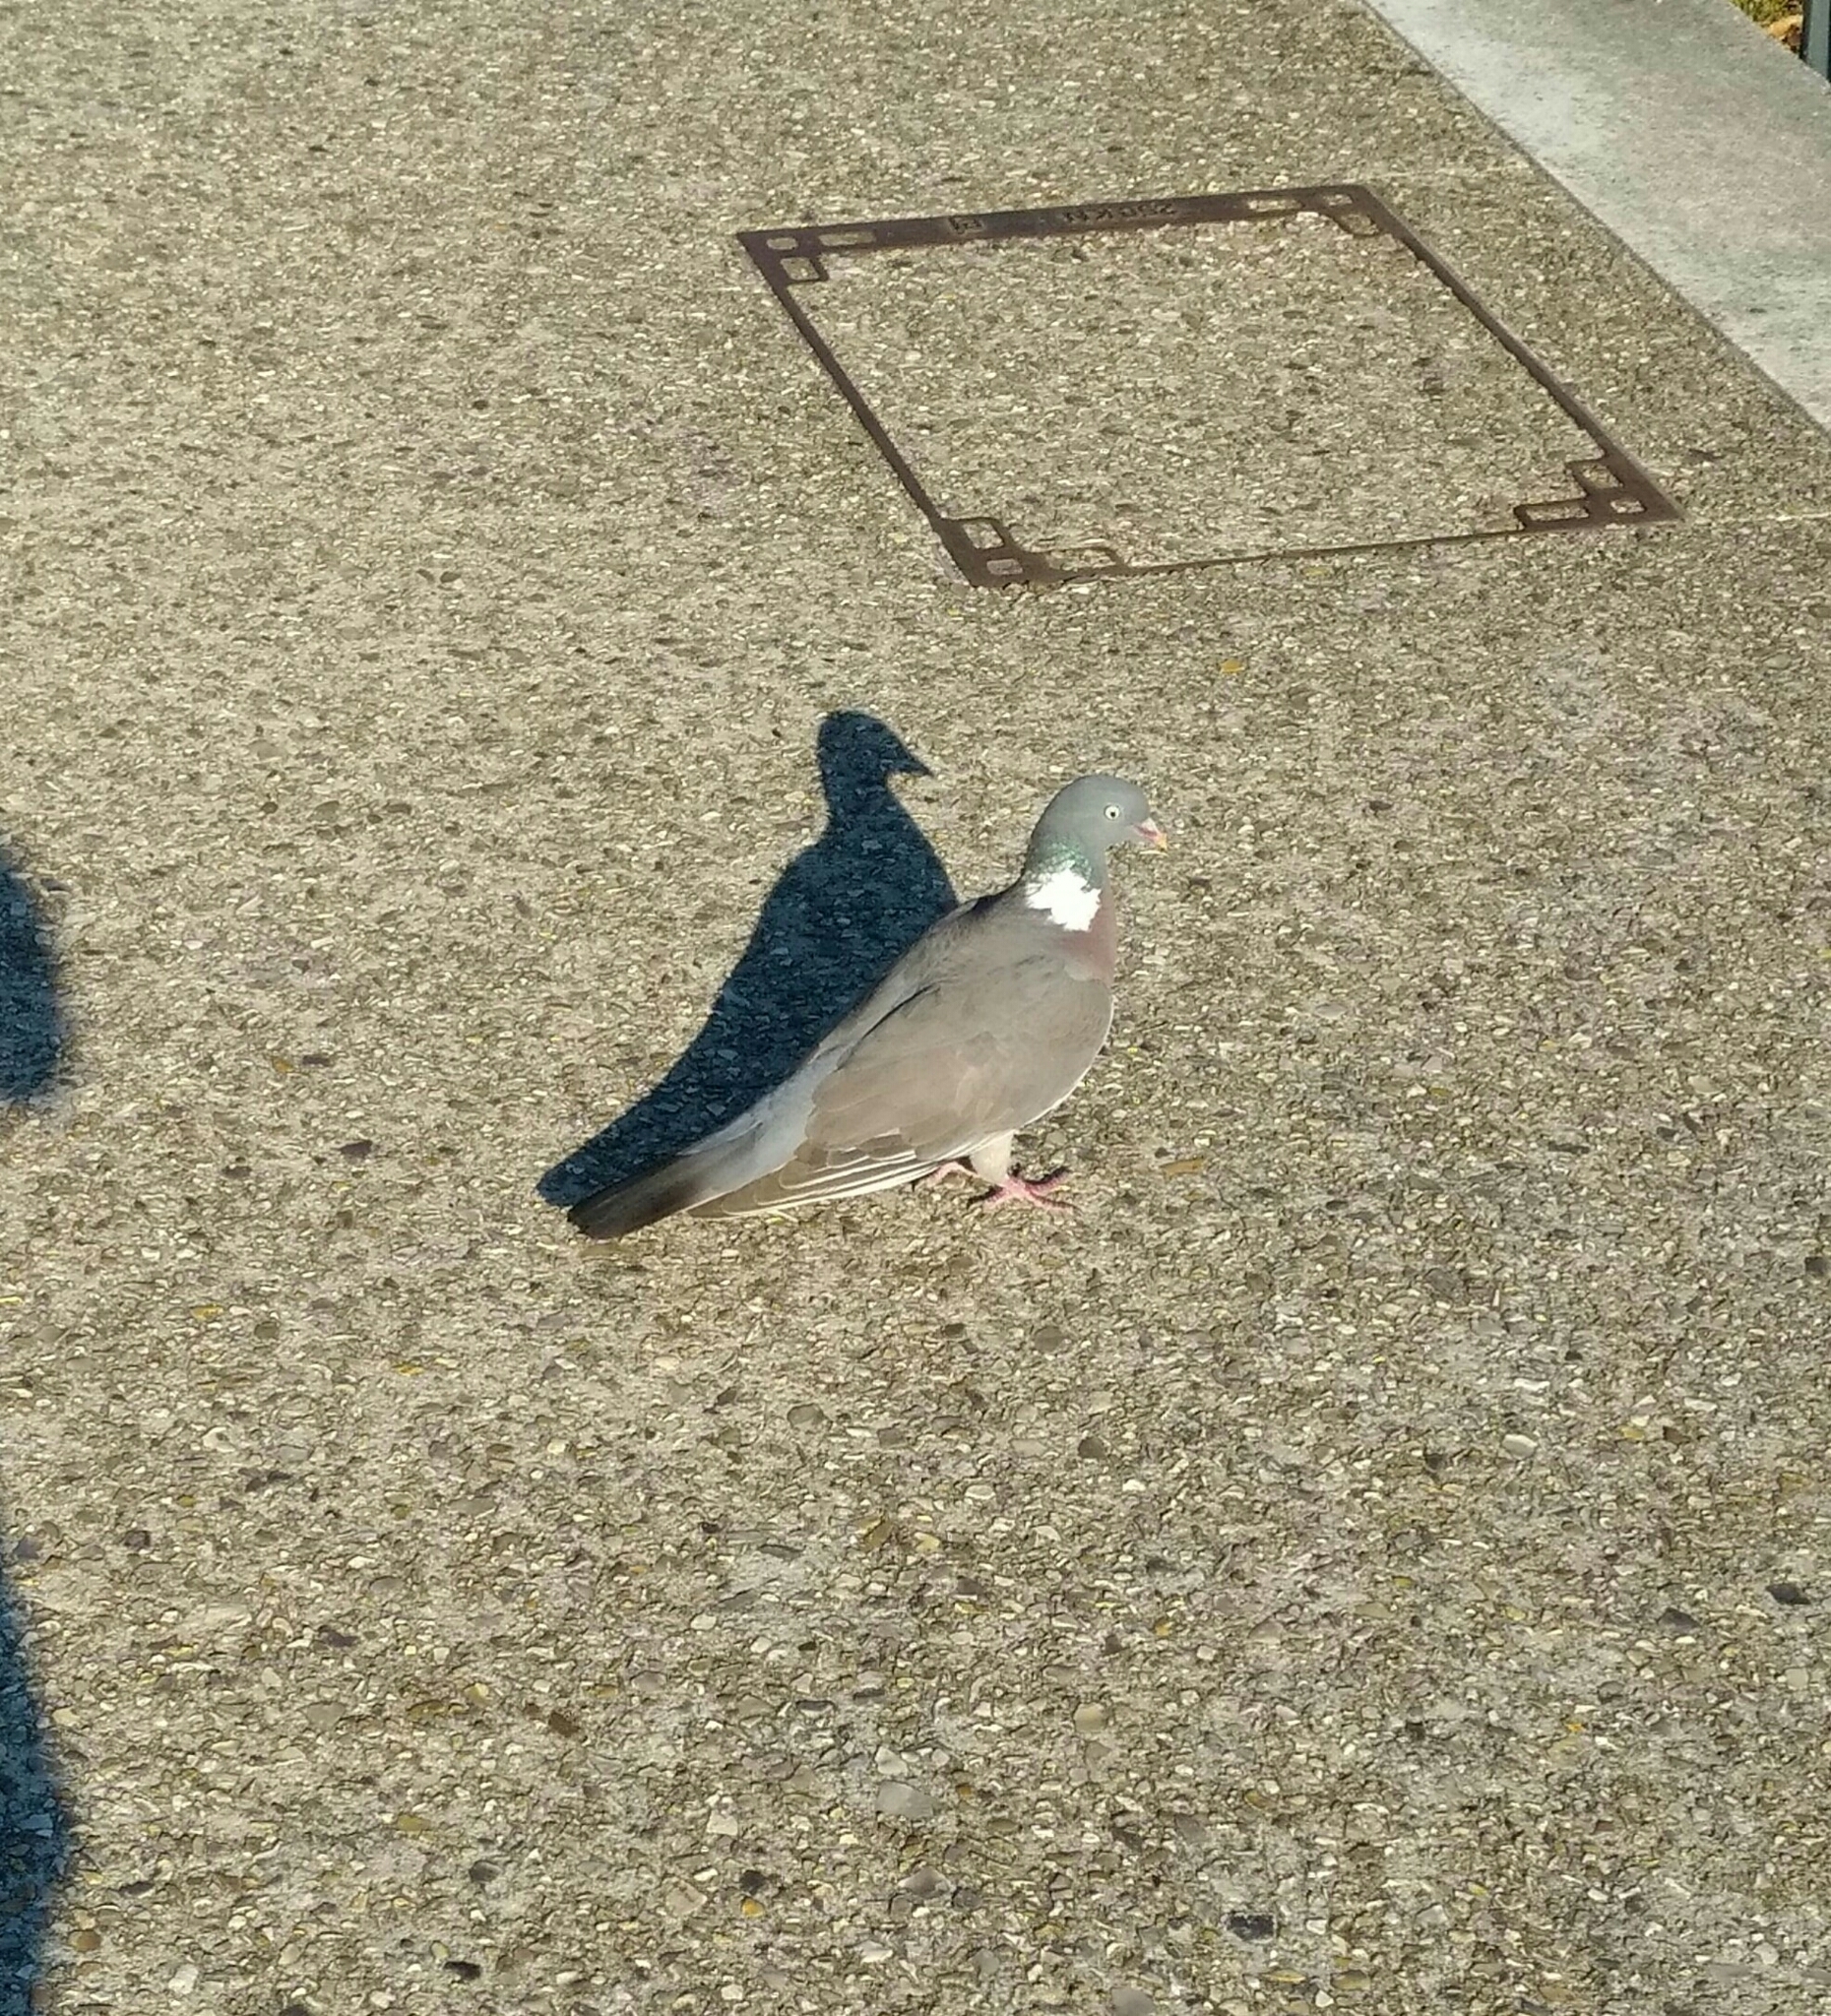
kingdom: Animalia
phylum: Chordata
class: Aves
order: Columbiformes
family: Columbidae
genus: Columba
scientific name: Columba palumbus
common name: Common wood pigeon
